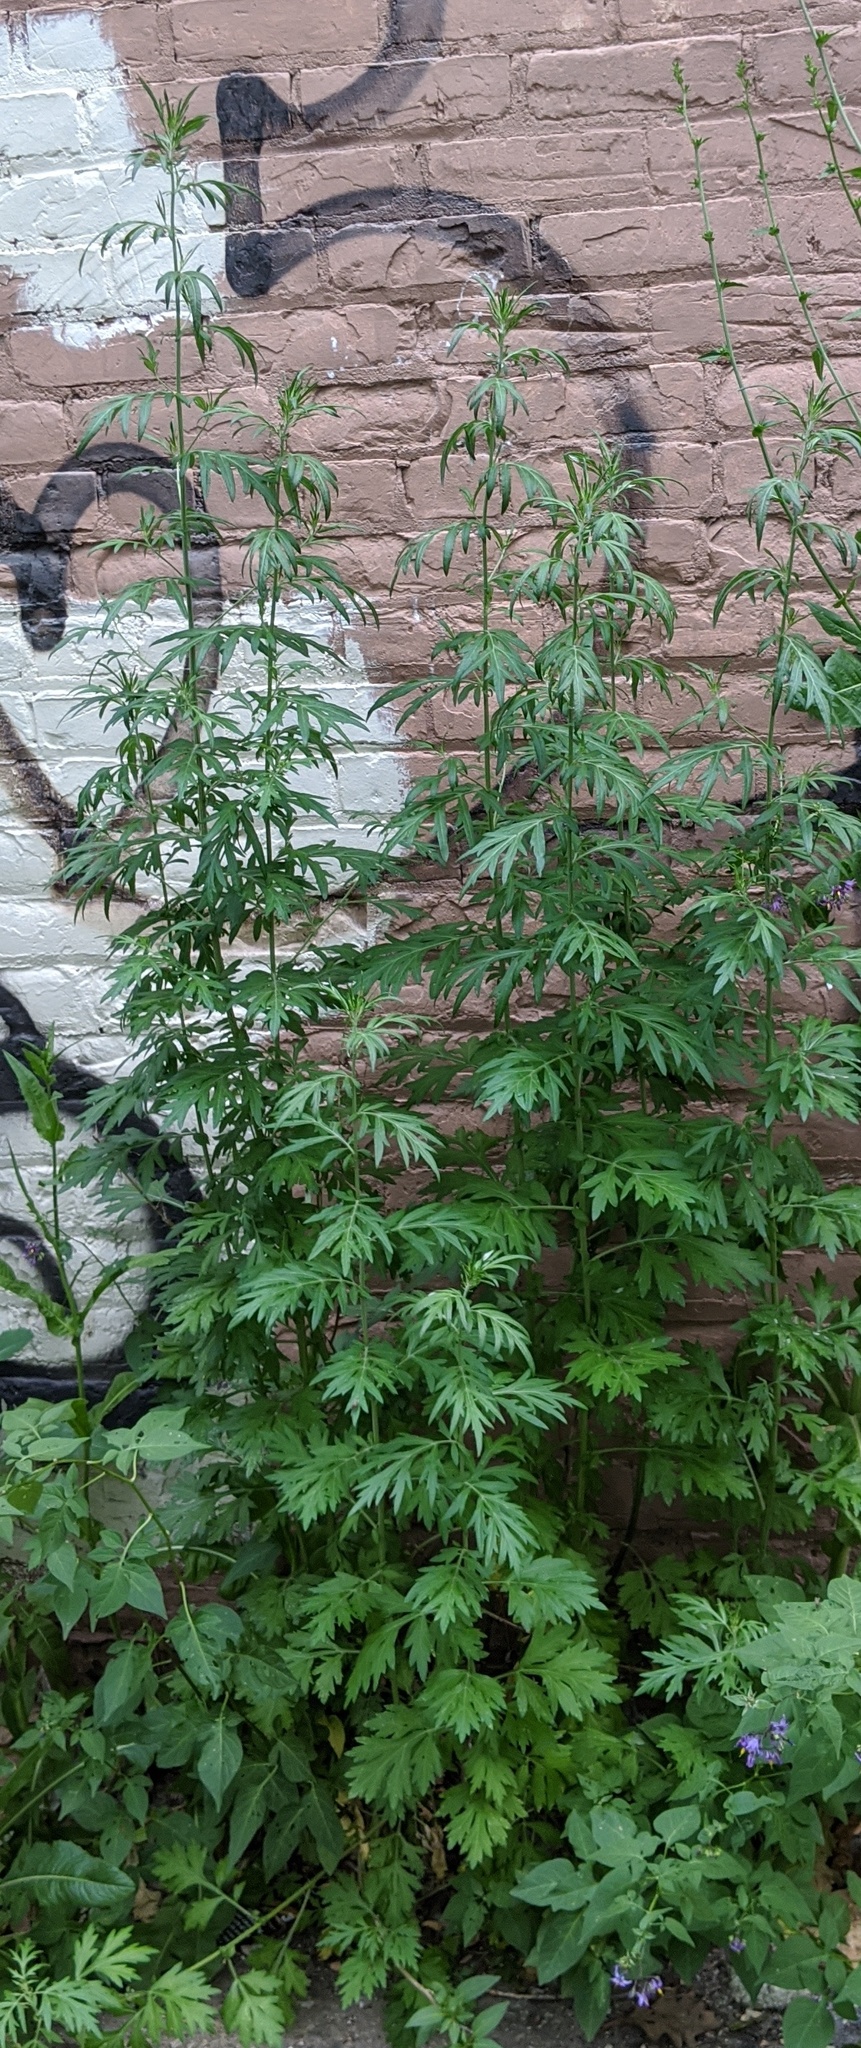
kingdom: Plantae
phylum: Tracheophyta
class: Magnoliopsida
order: Asterales
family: Asteraceae
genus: Artemisia
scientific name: Artemisia vulgaris
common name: Mugwort
